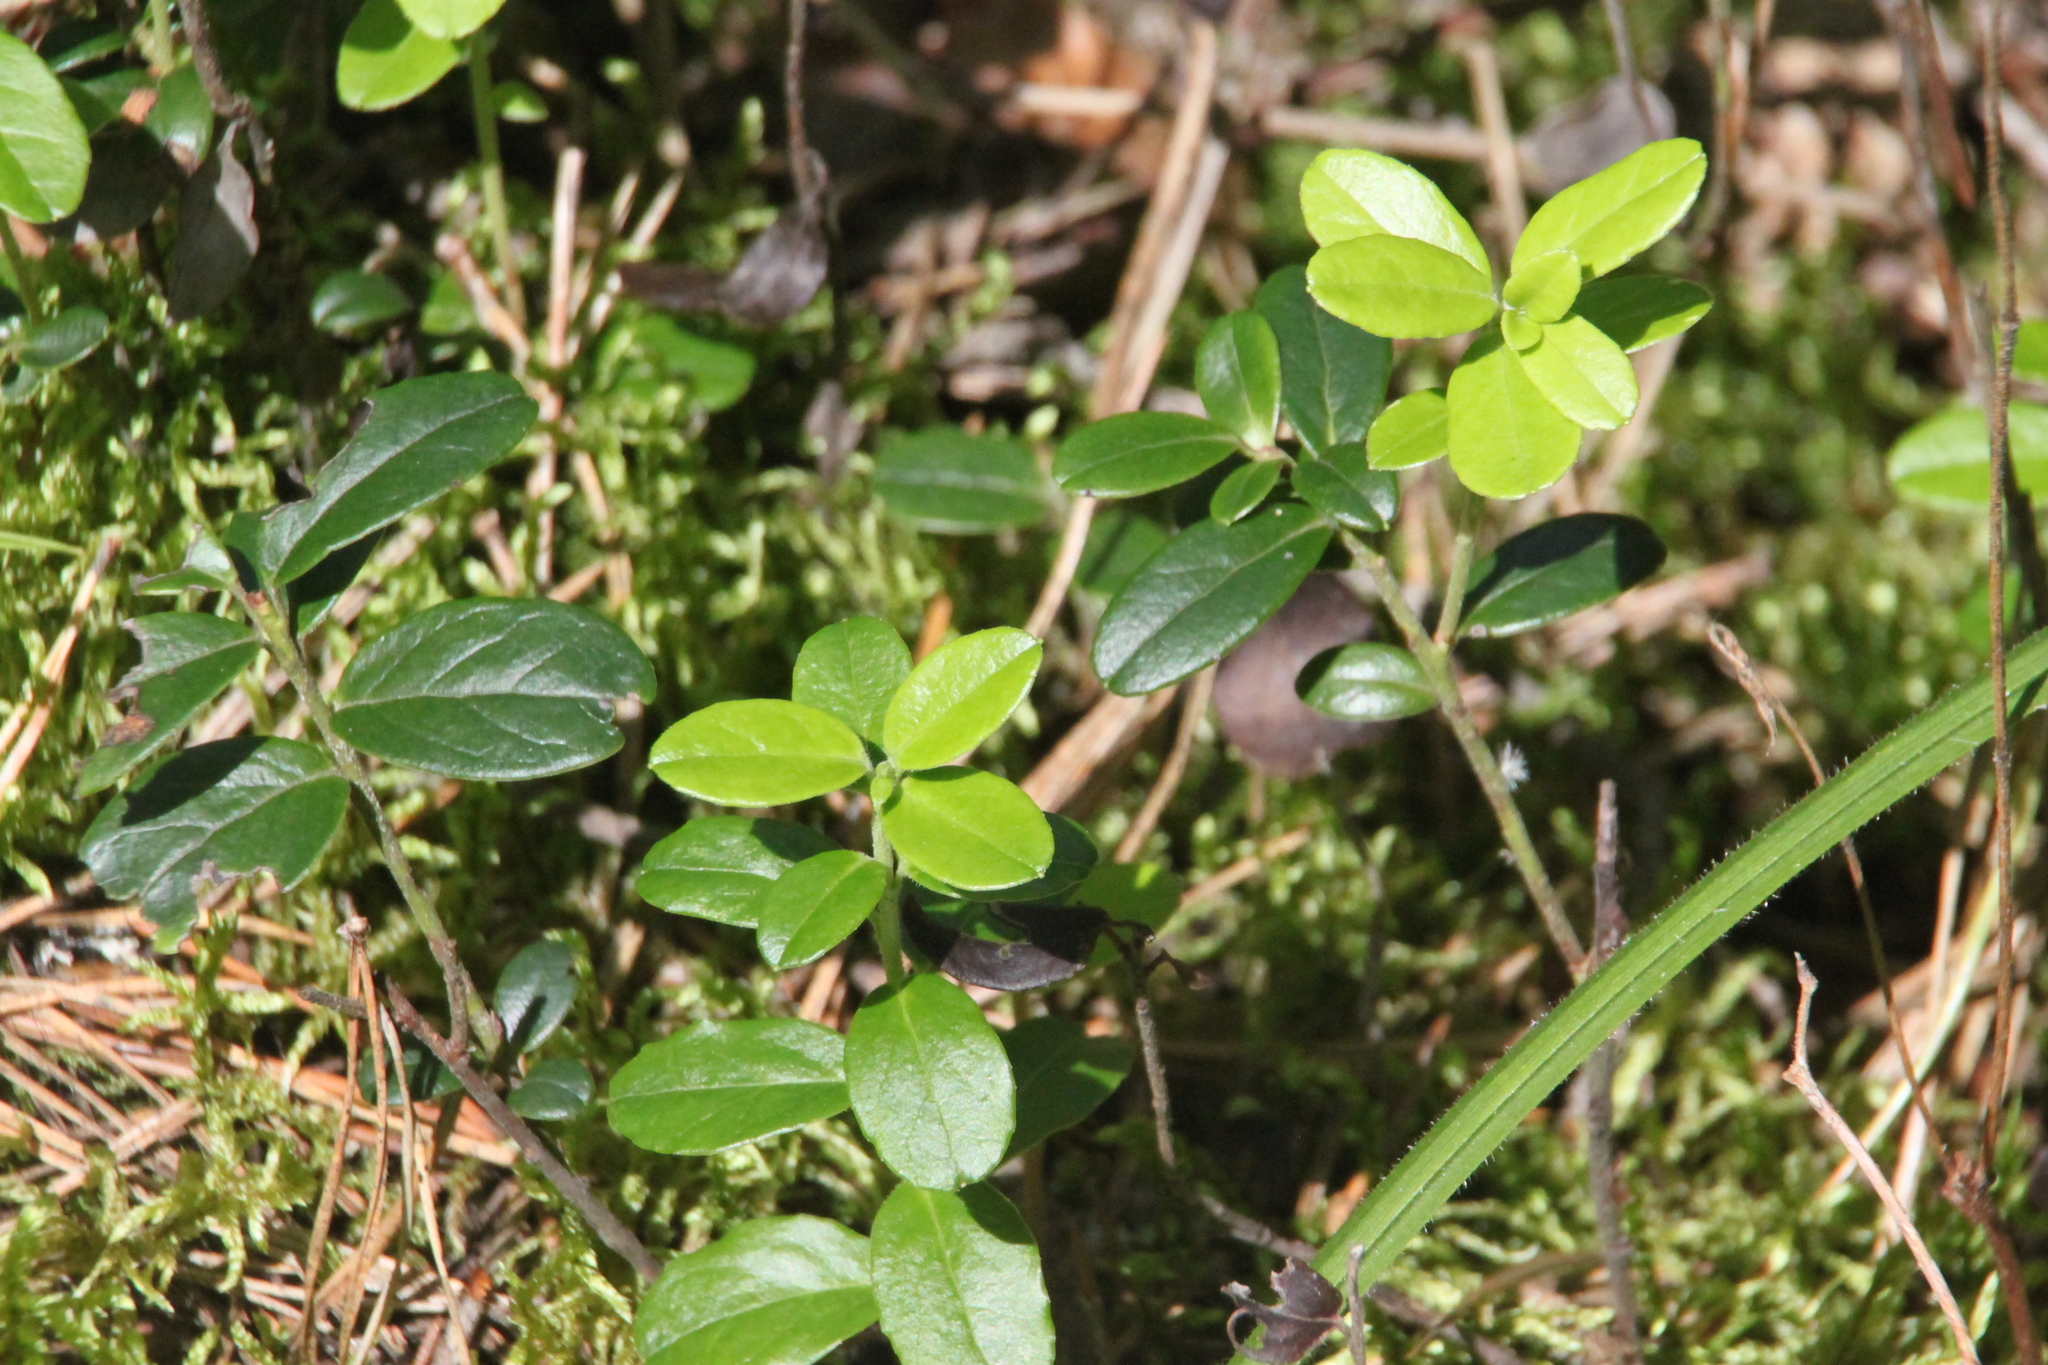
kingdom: Plantae
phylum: Tracheophyta
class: Magnoliopsida
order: Ericales
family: Ericaceae
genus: Vaccinium
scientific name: Vaccinium vitis-idaea
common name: Cowberry
